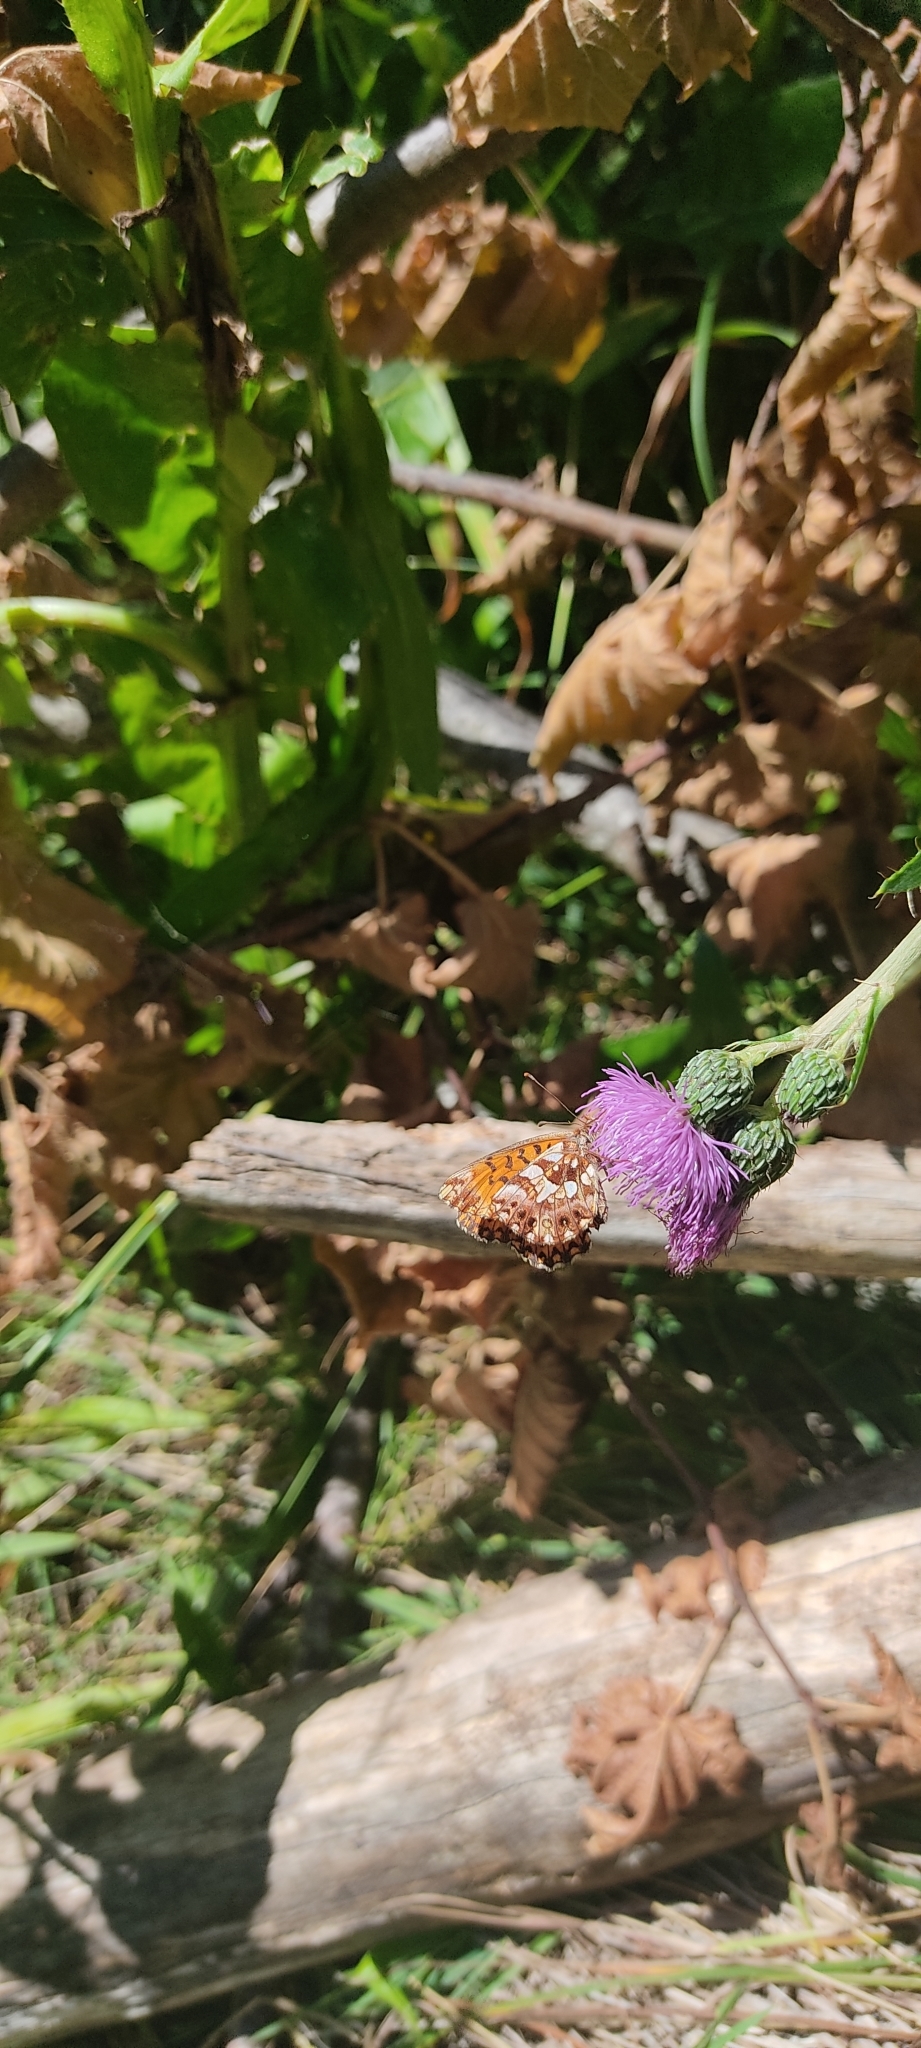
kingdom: Animalia
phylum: Arthropoda
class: Insecta
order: Lepidoptera
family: Nymphalidae
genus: Boloria
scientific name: Boloria dia
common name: Weaver's fritillary
